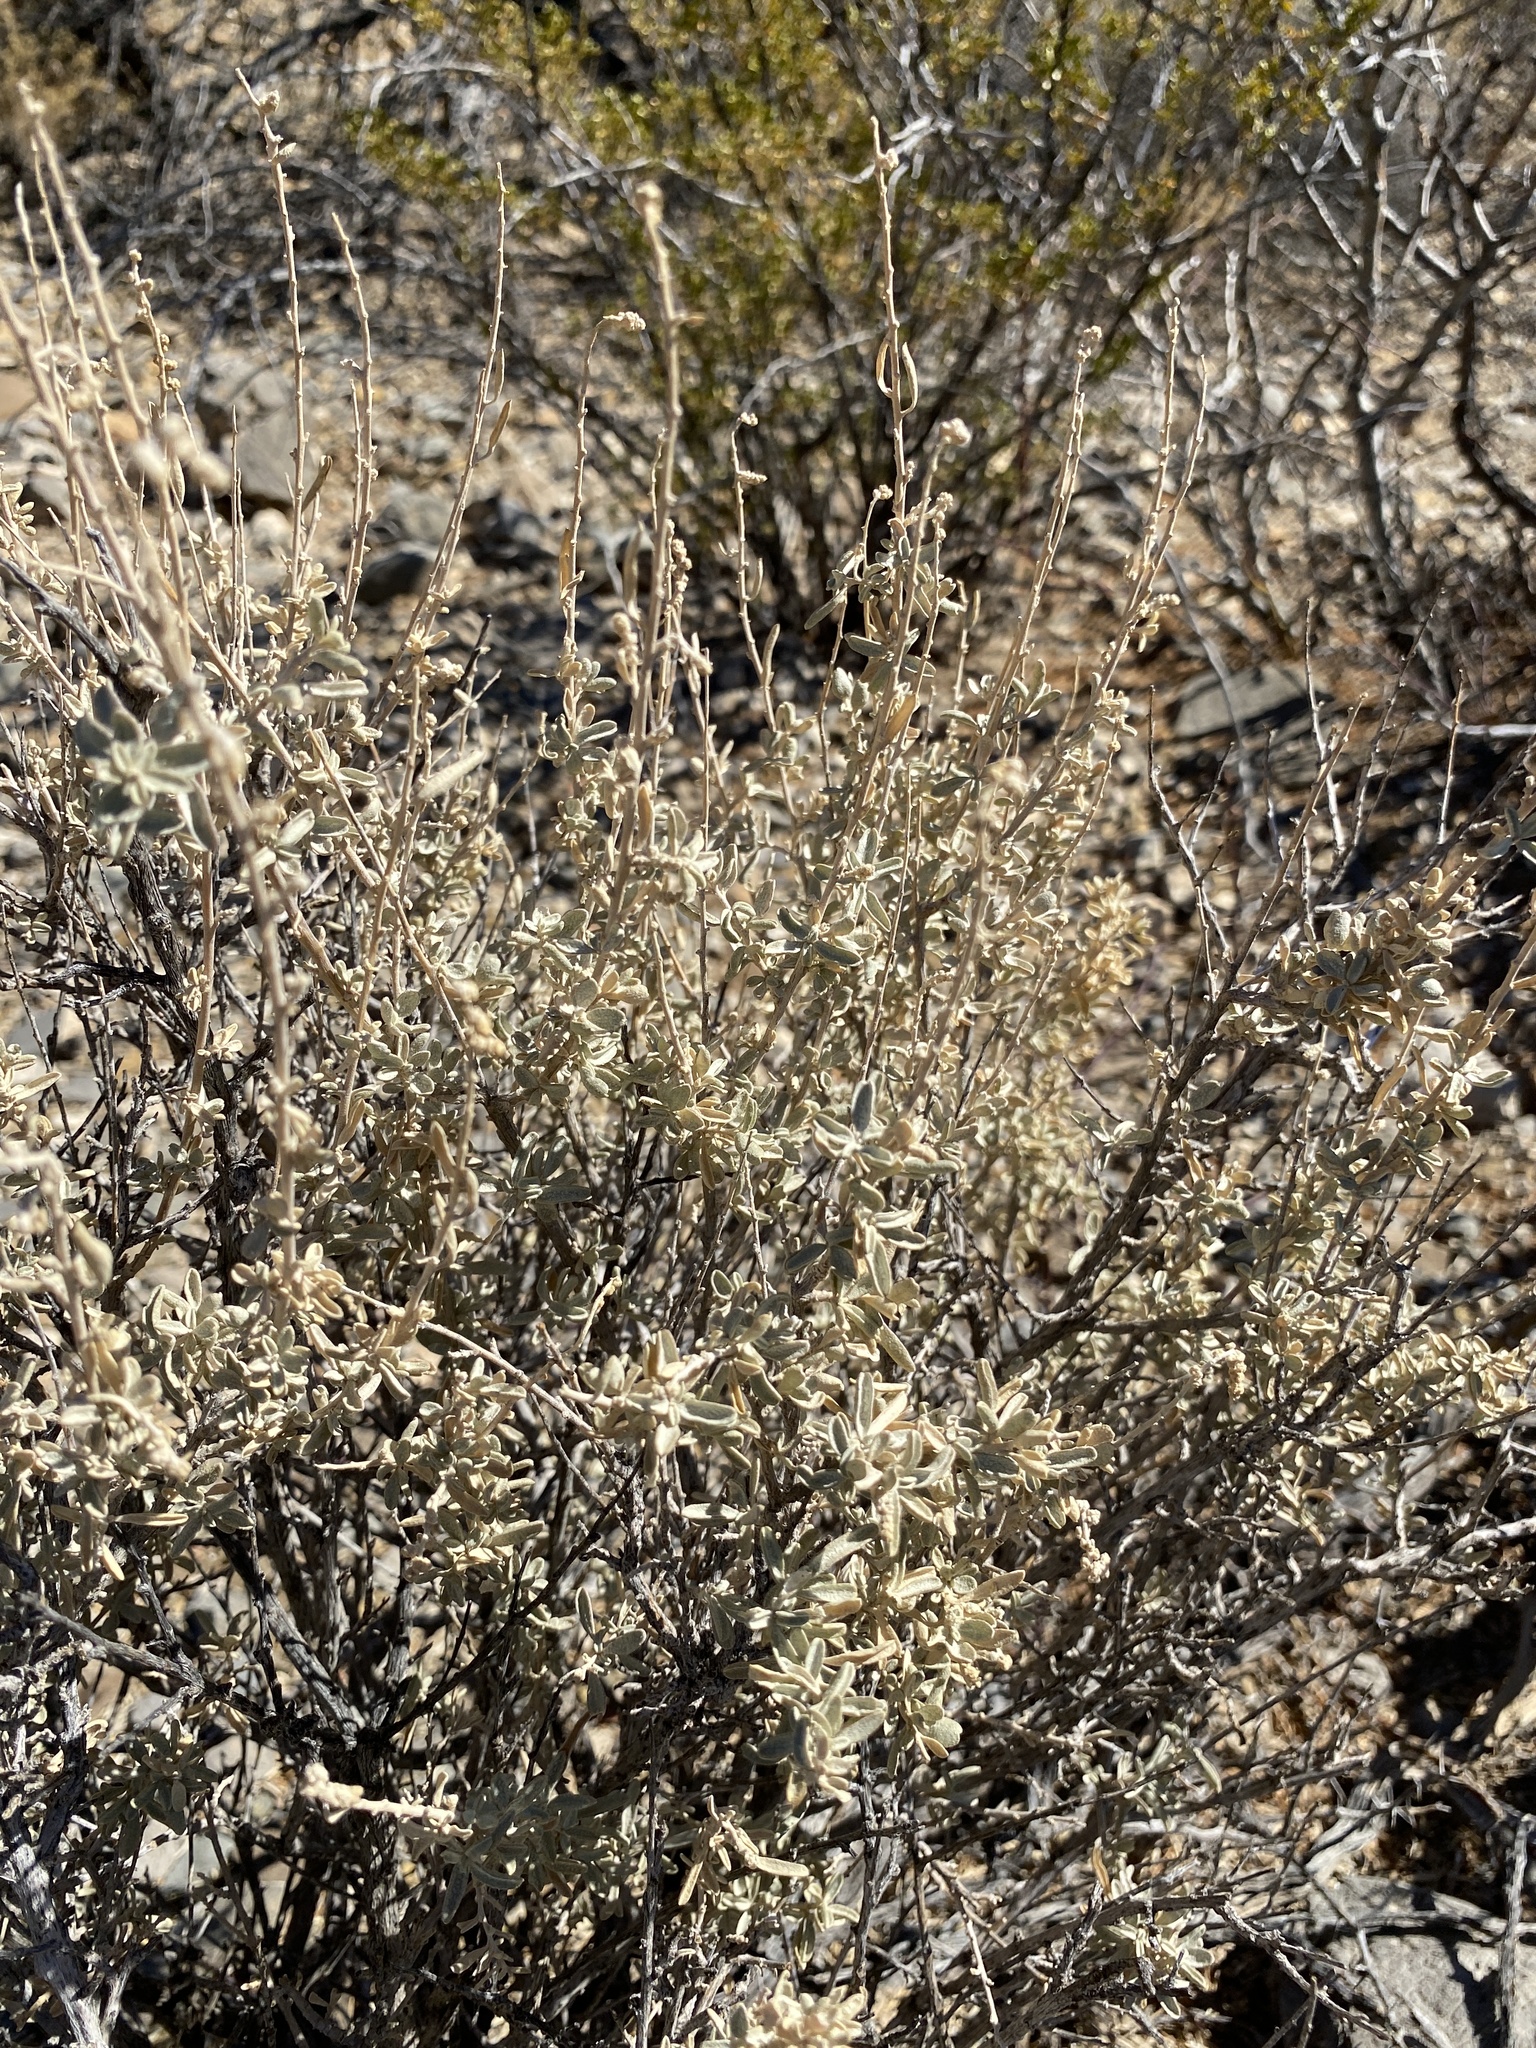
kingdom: Plantae
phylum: Tracheophyta
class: Magnoliopsida
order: Caryophyllales
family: Amaranthaceae
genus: Atriplex
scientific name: Atriplex canescens
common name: Four-wing saltbush
